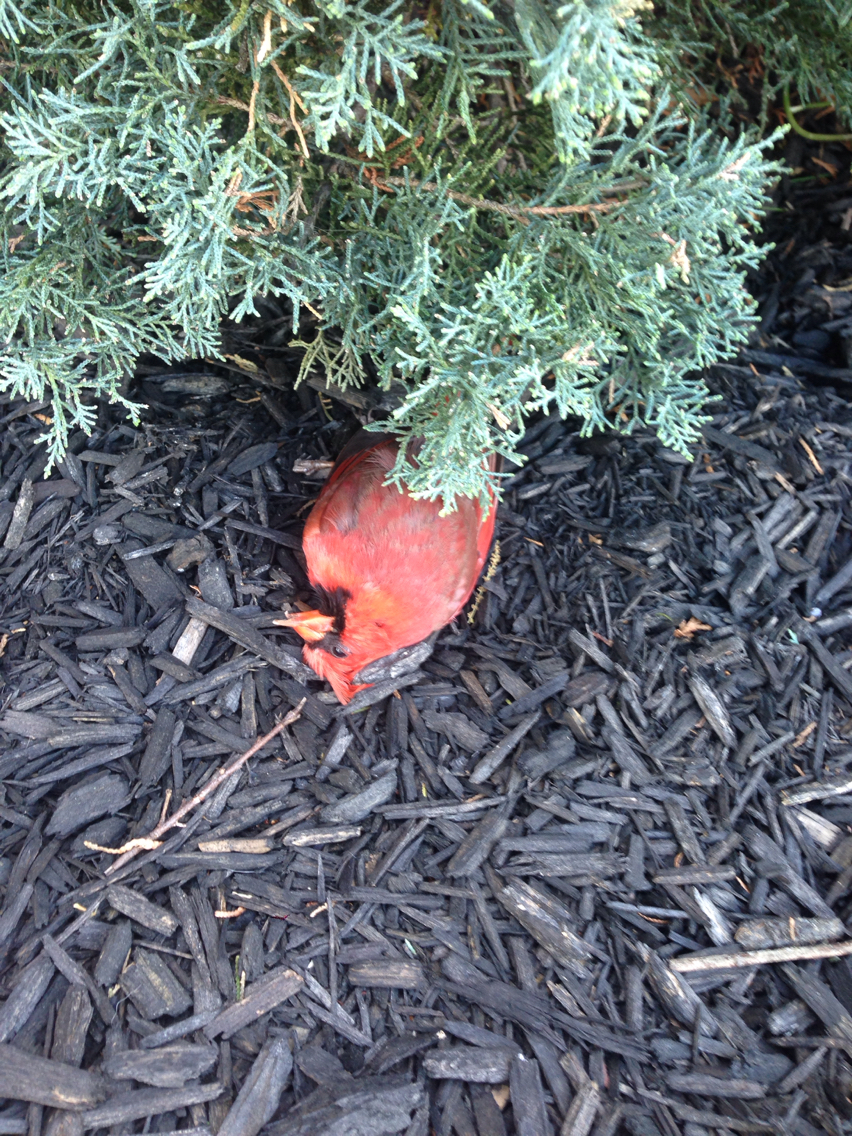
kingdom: Animalia
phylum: Chordata
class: Aves
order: Passeriformes
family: Cardinalidae
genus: Cardinalis
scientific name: Cardinalis cardinalis
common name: Northern cardinal
